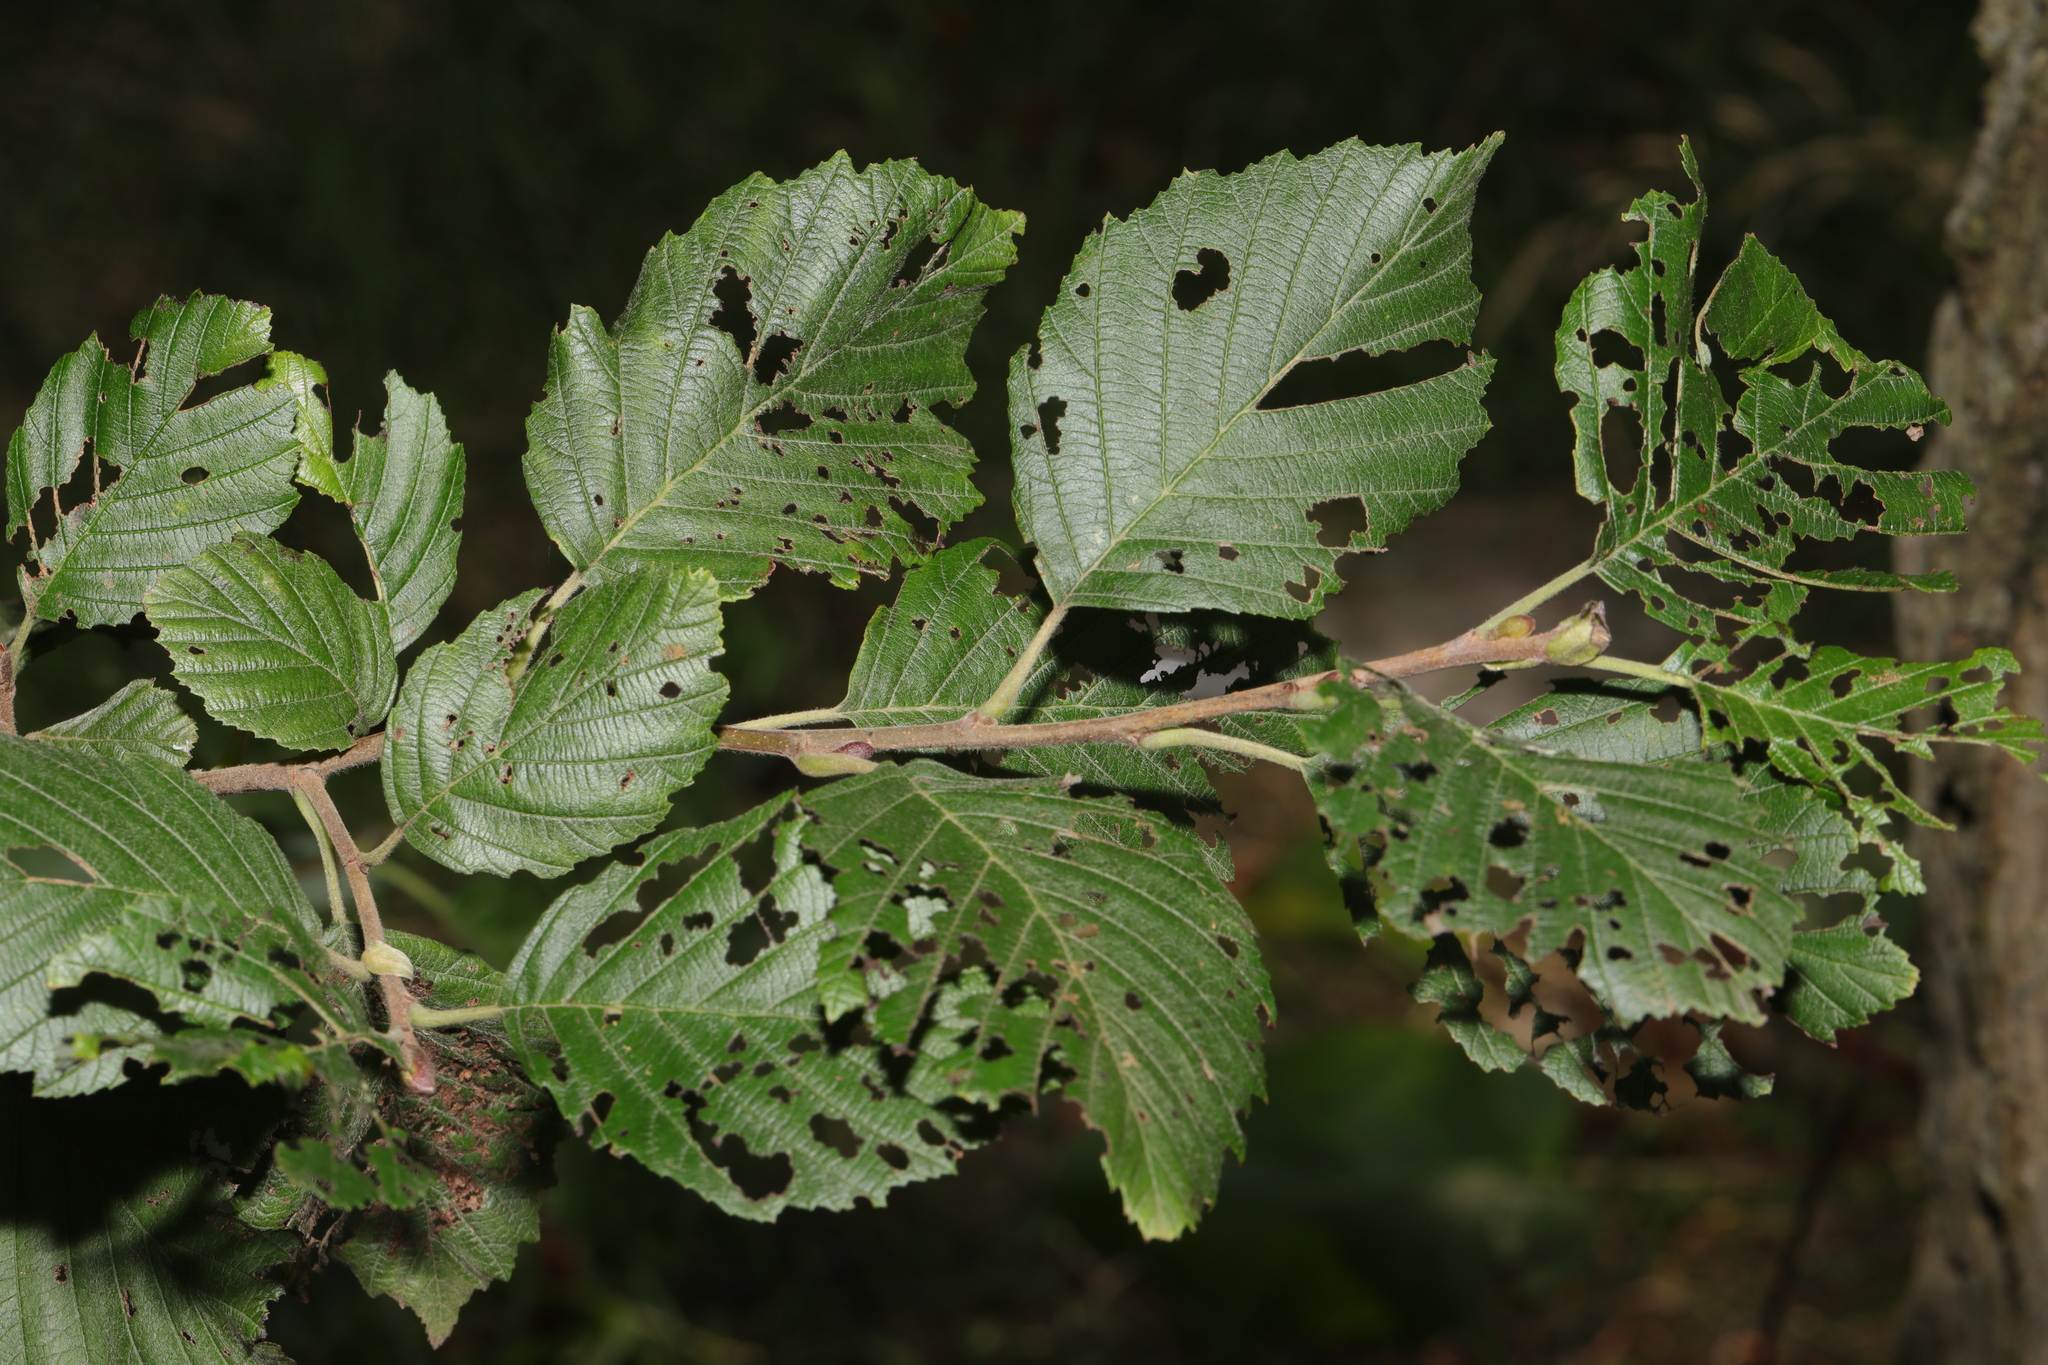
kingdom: Plantae
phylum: Tracheophyta
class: Magnoliopsida
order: Fagales
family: Betulaceae
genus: Alnus
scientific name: Alnus incana
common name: Grey alder
